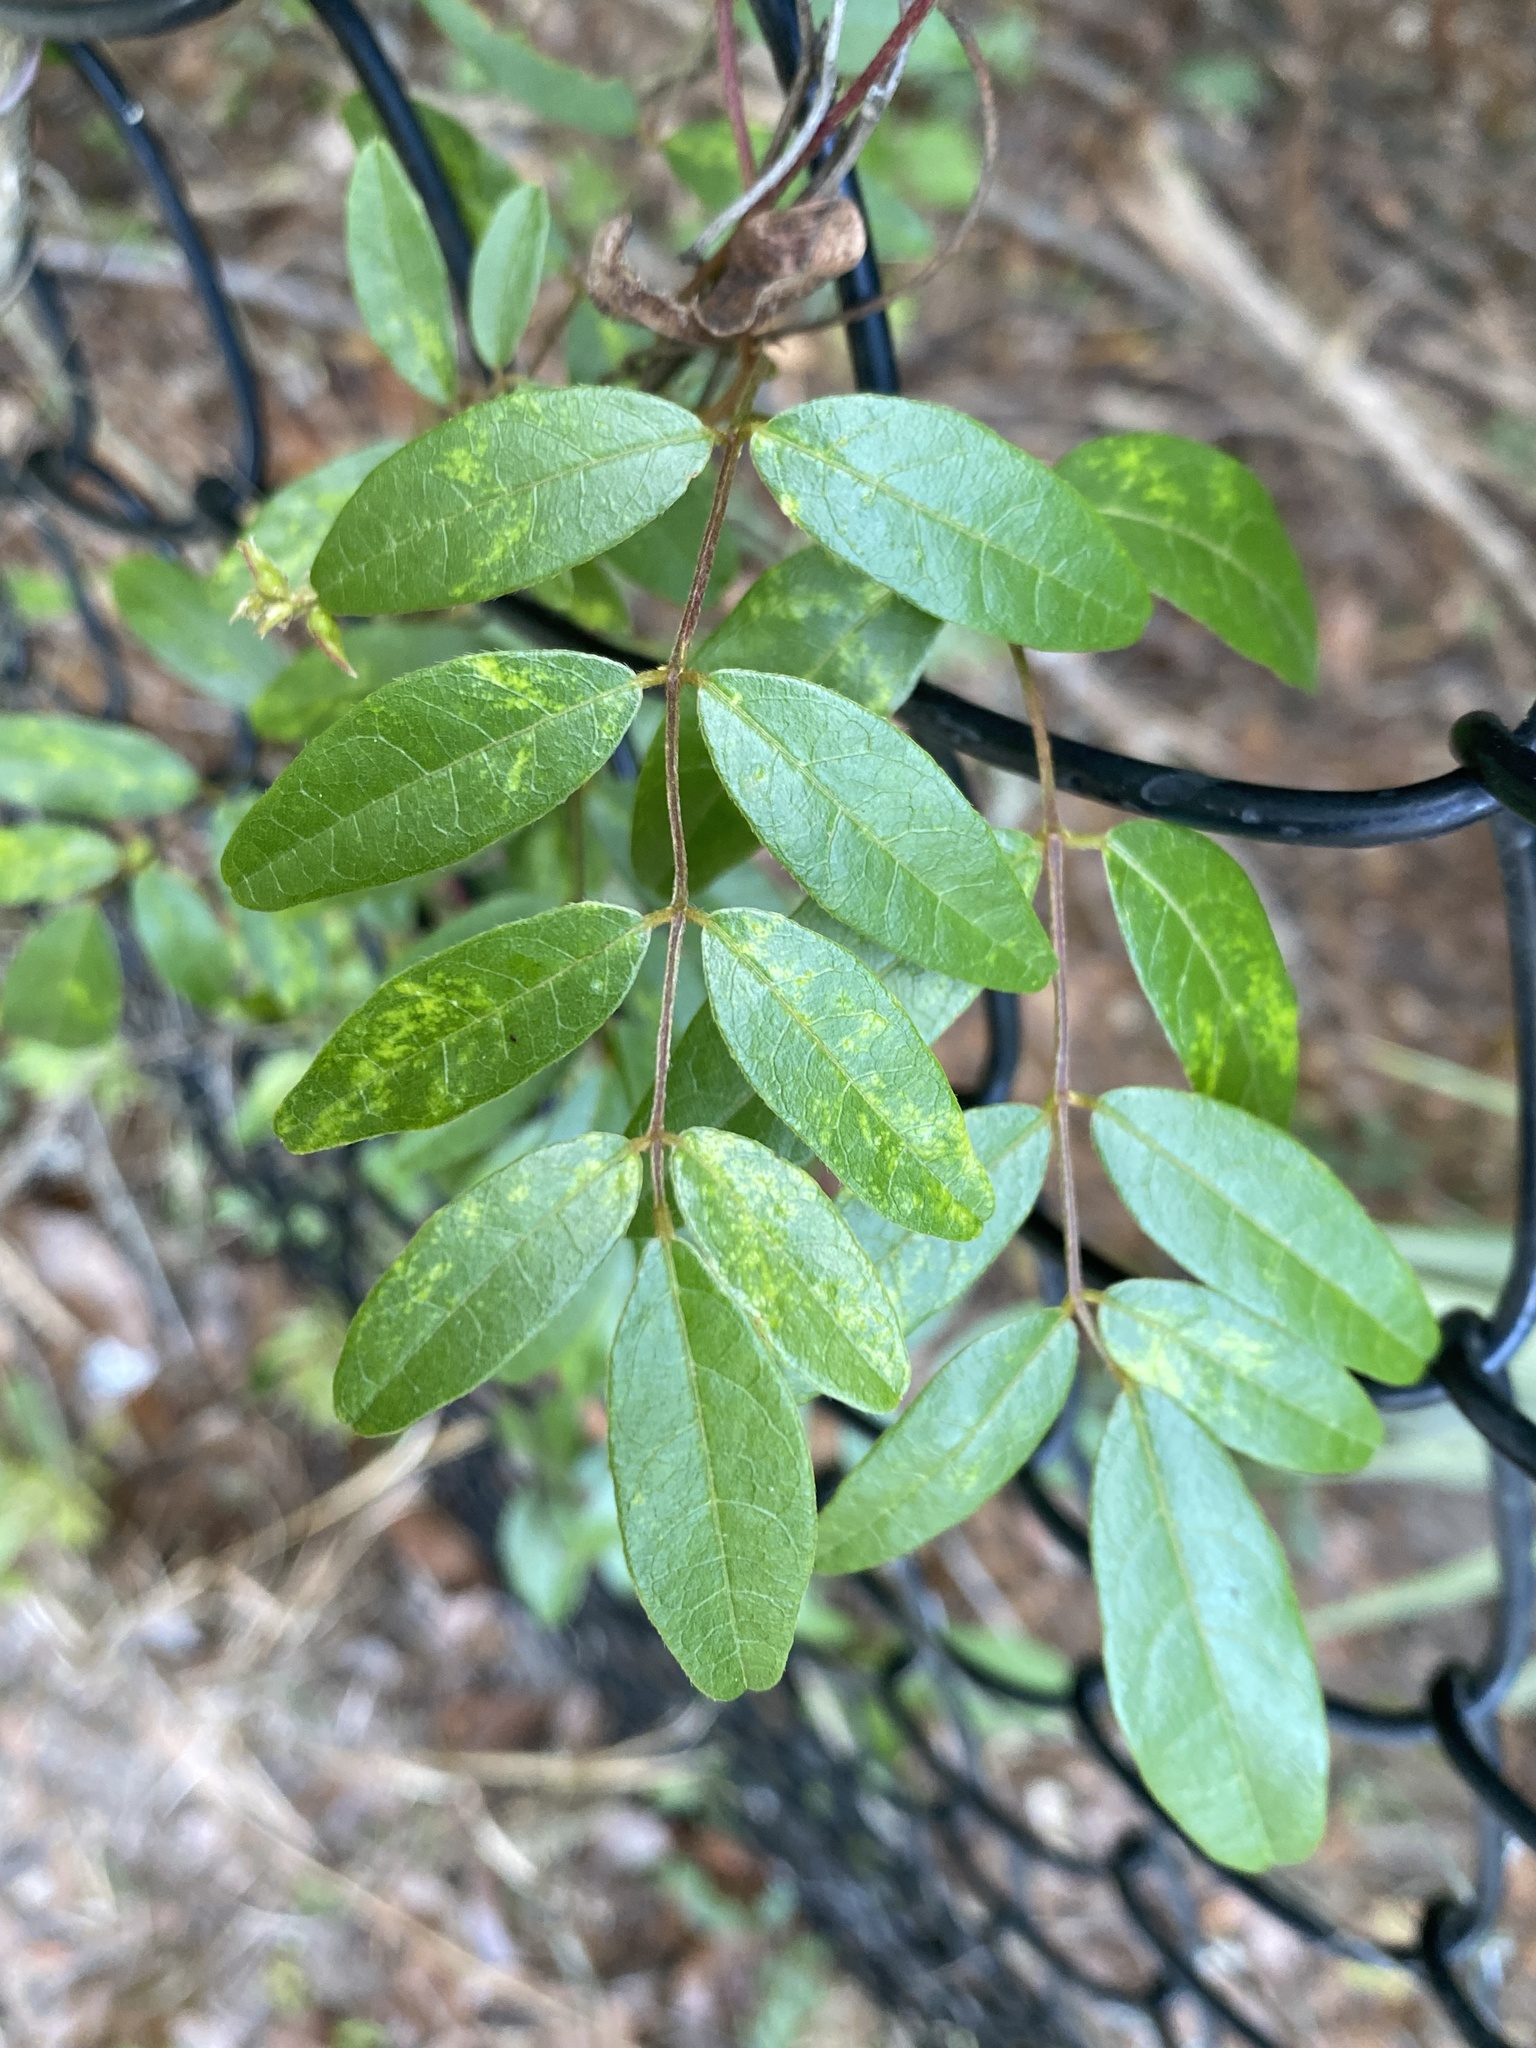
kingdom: Plantae
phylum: Tracheophyta
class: Magnoliopsida
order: Fabales
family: Fabaceae
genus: Galactia
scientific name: Galactia elliottii
